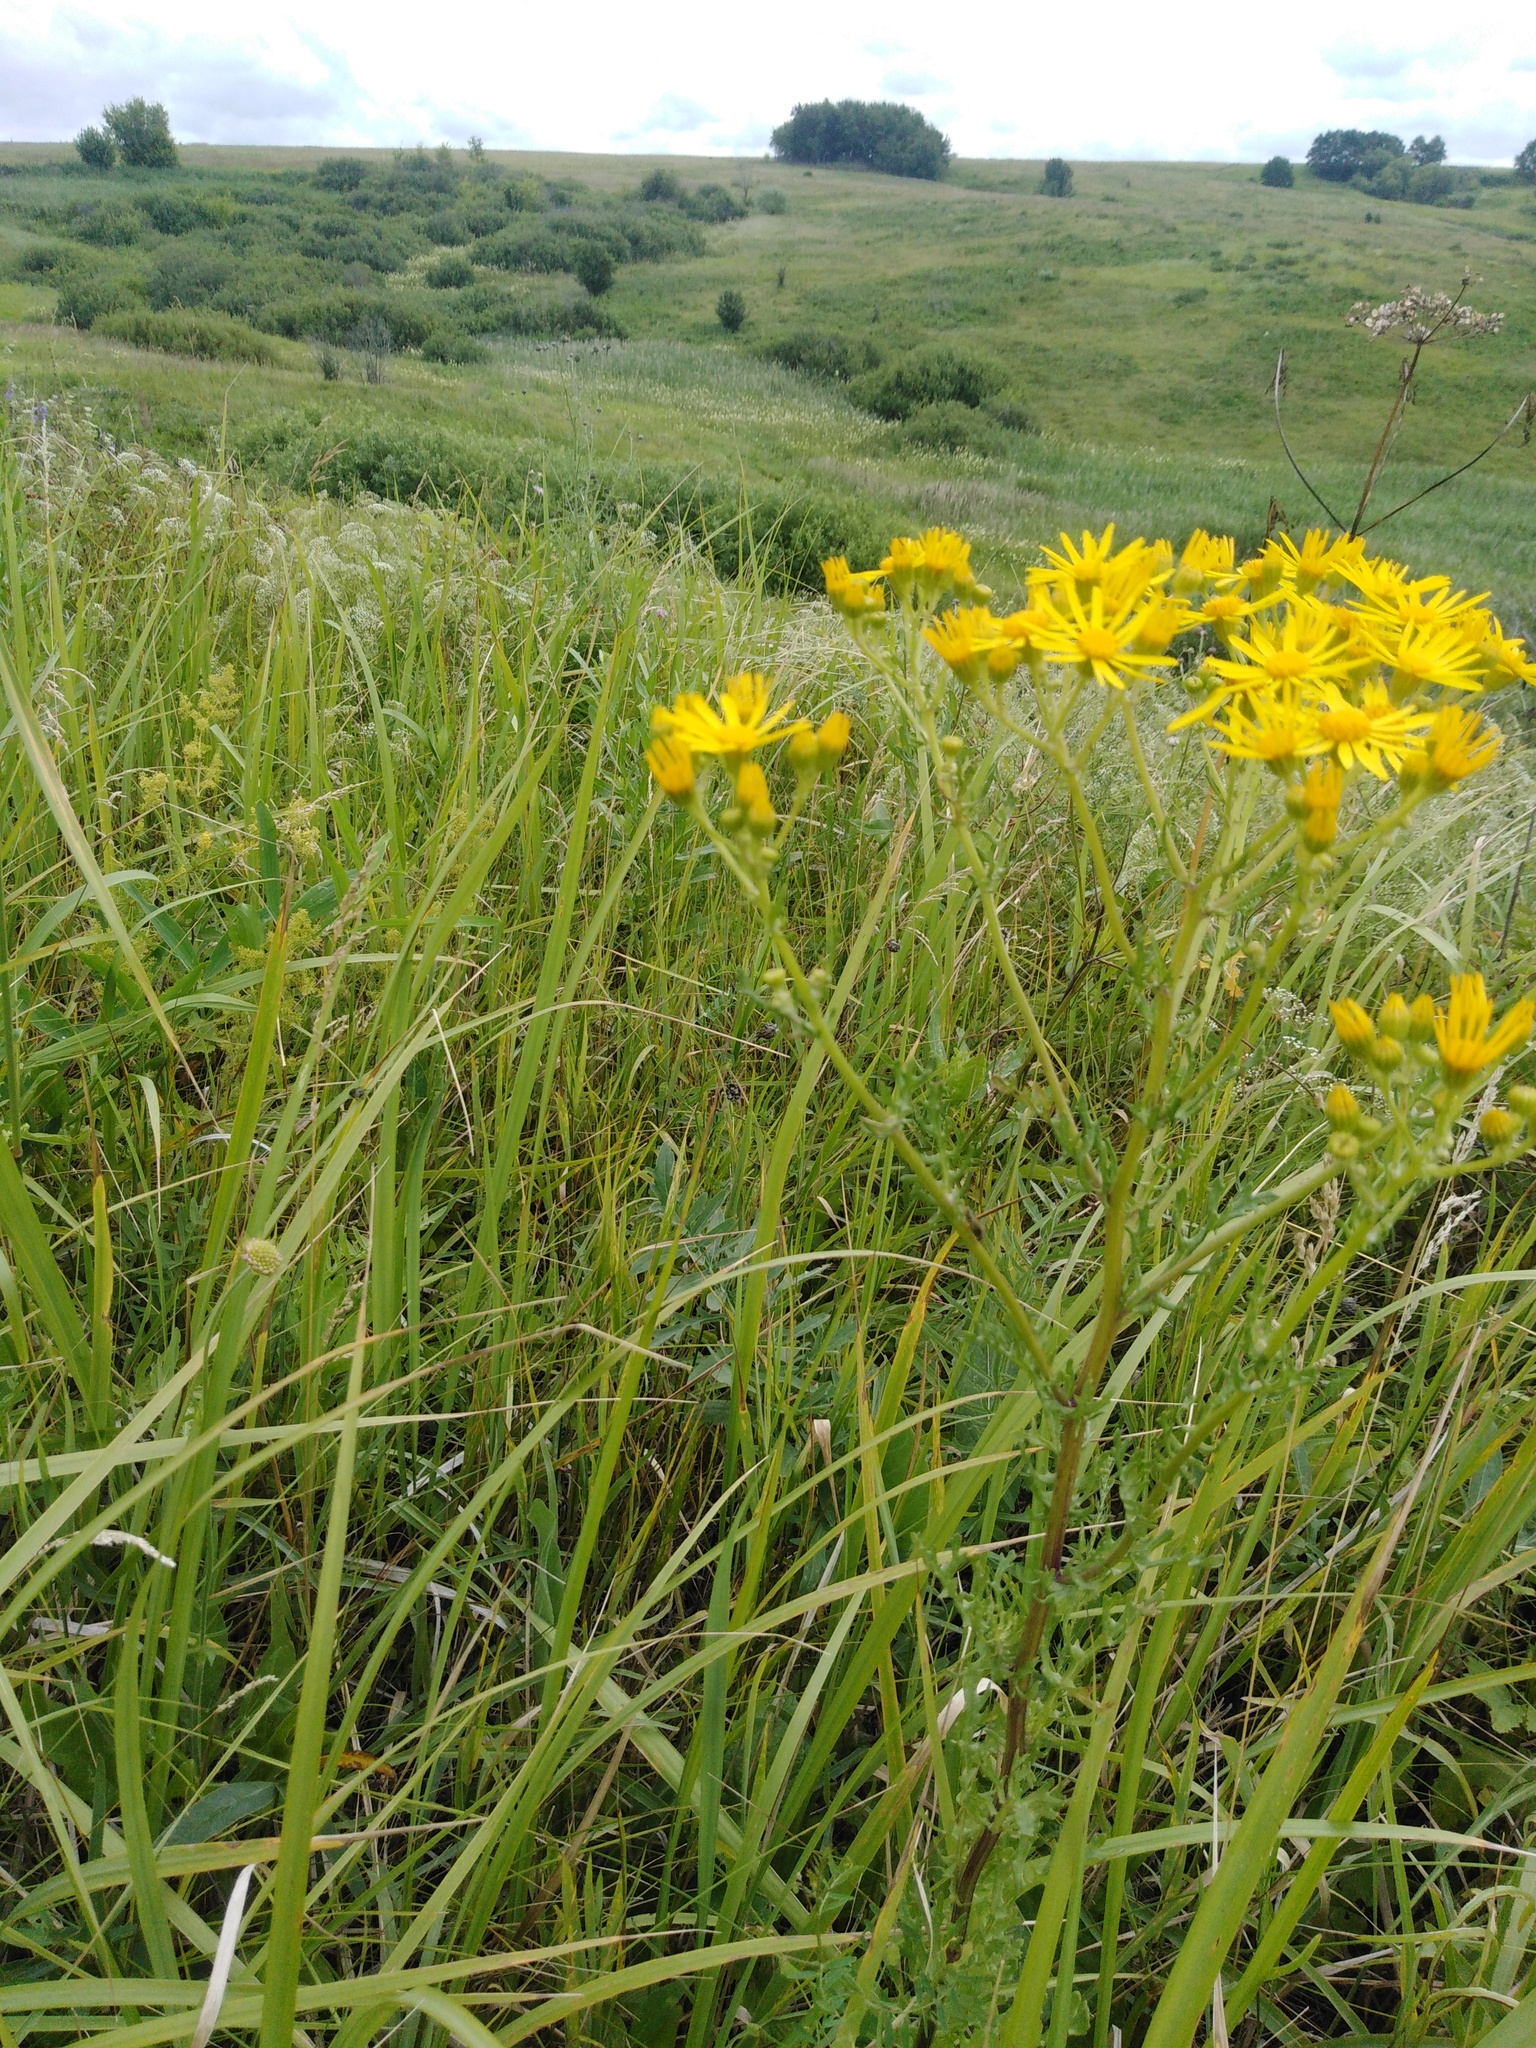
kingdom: Plantae
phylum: Tracheophyta
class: Magnoliopsida
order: Asterales
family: Asteraceae
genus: Jacobaea
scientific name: Jacobaea vulgaris
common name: Stinking willie
